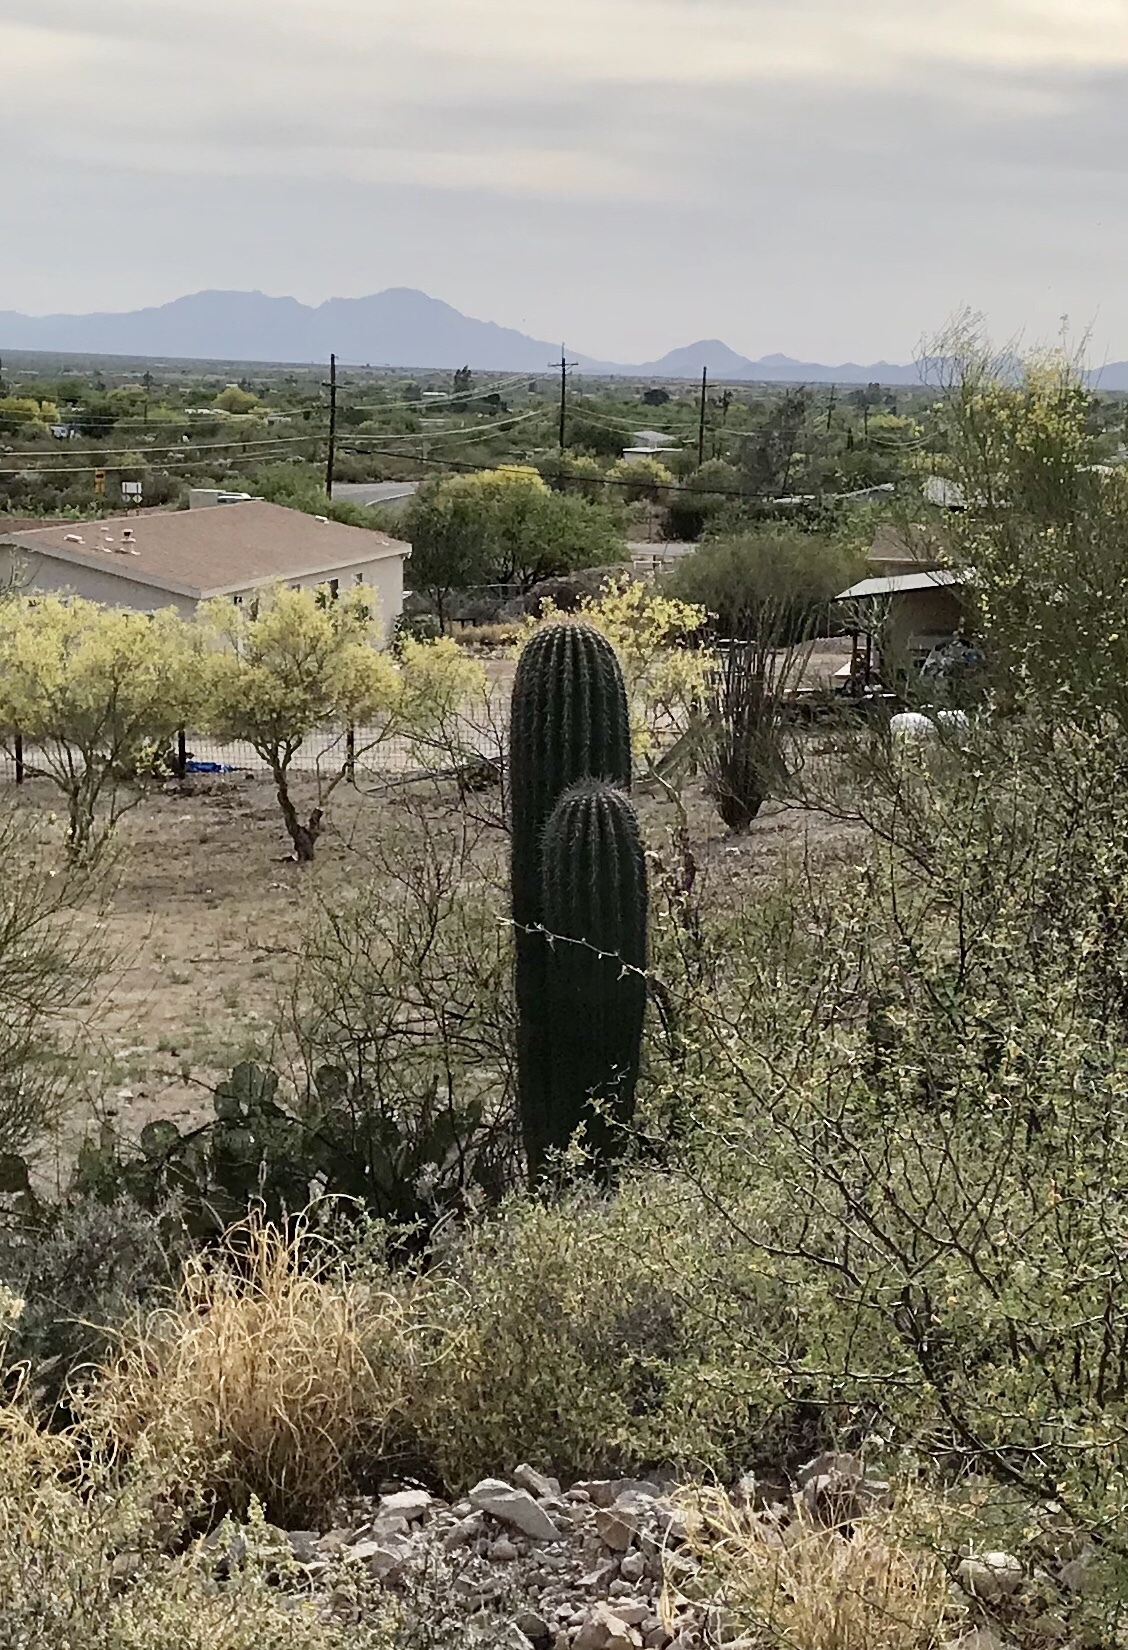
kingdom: Plantae
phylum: Tracheophyta
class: Magnoliopsida
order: Caryophyllales
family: Cactaceae
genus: Carnegiea
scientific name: Carnegiea gigantea
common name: Saguaro
